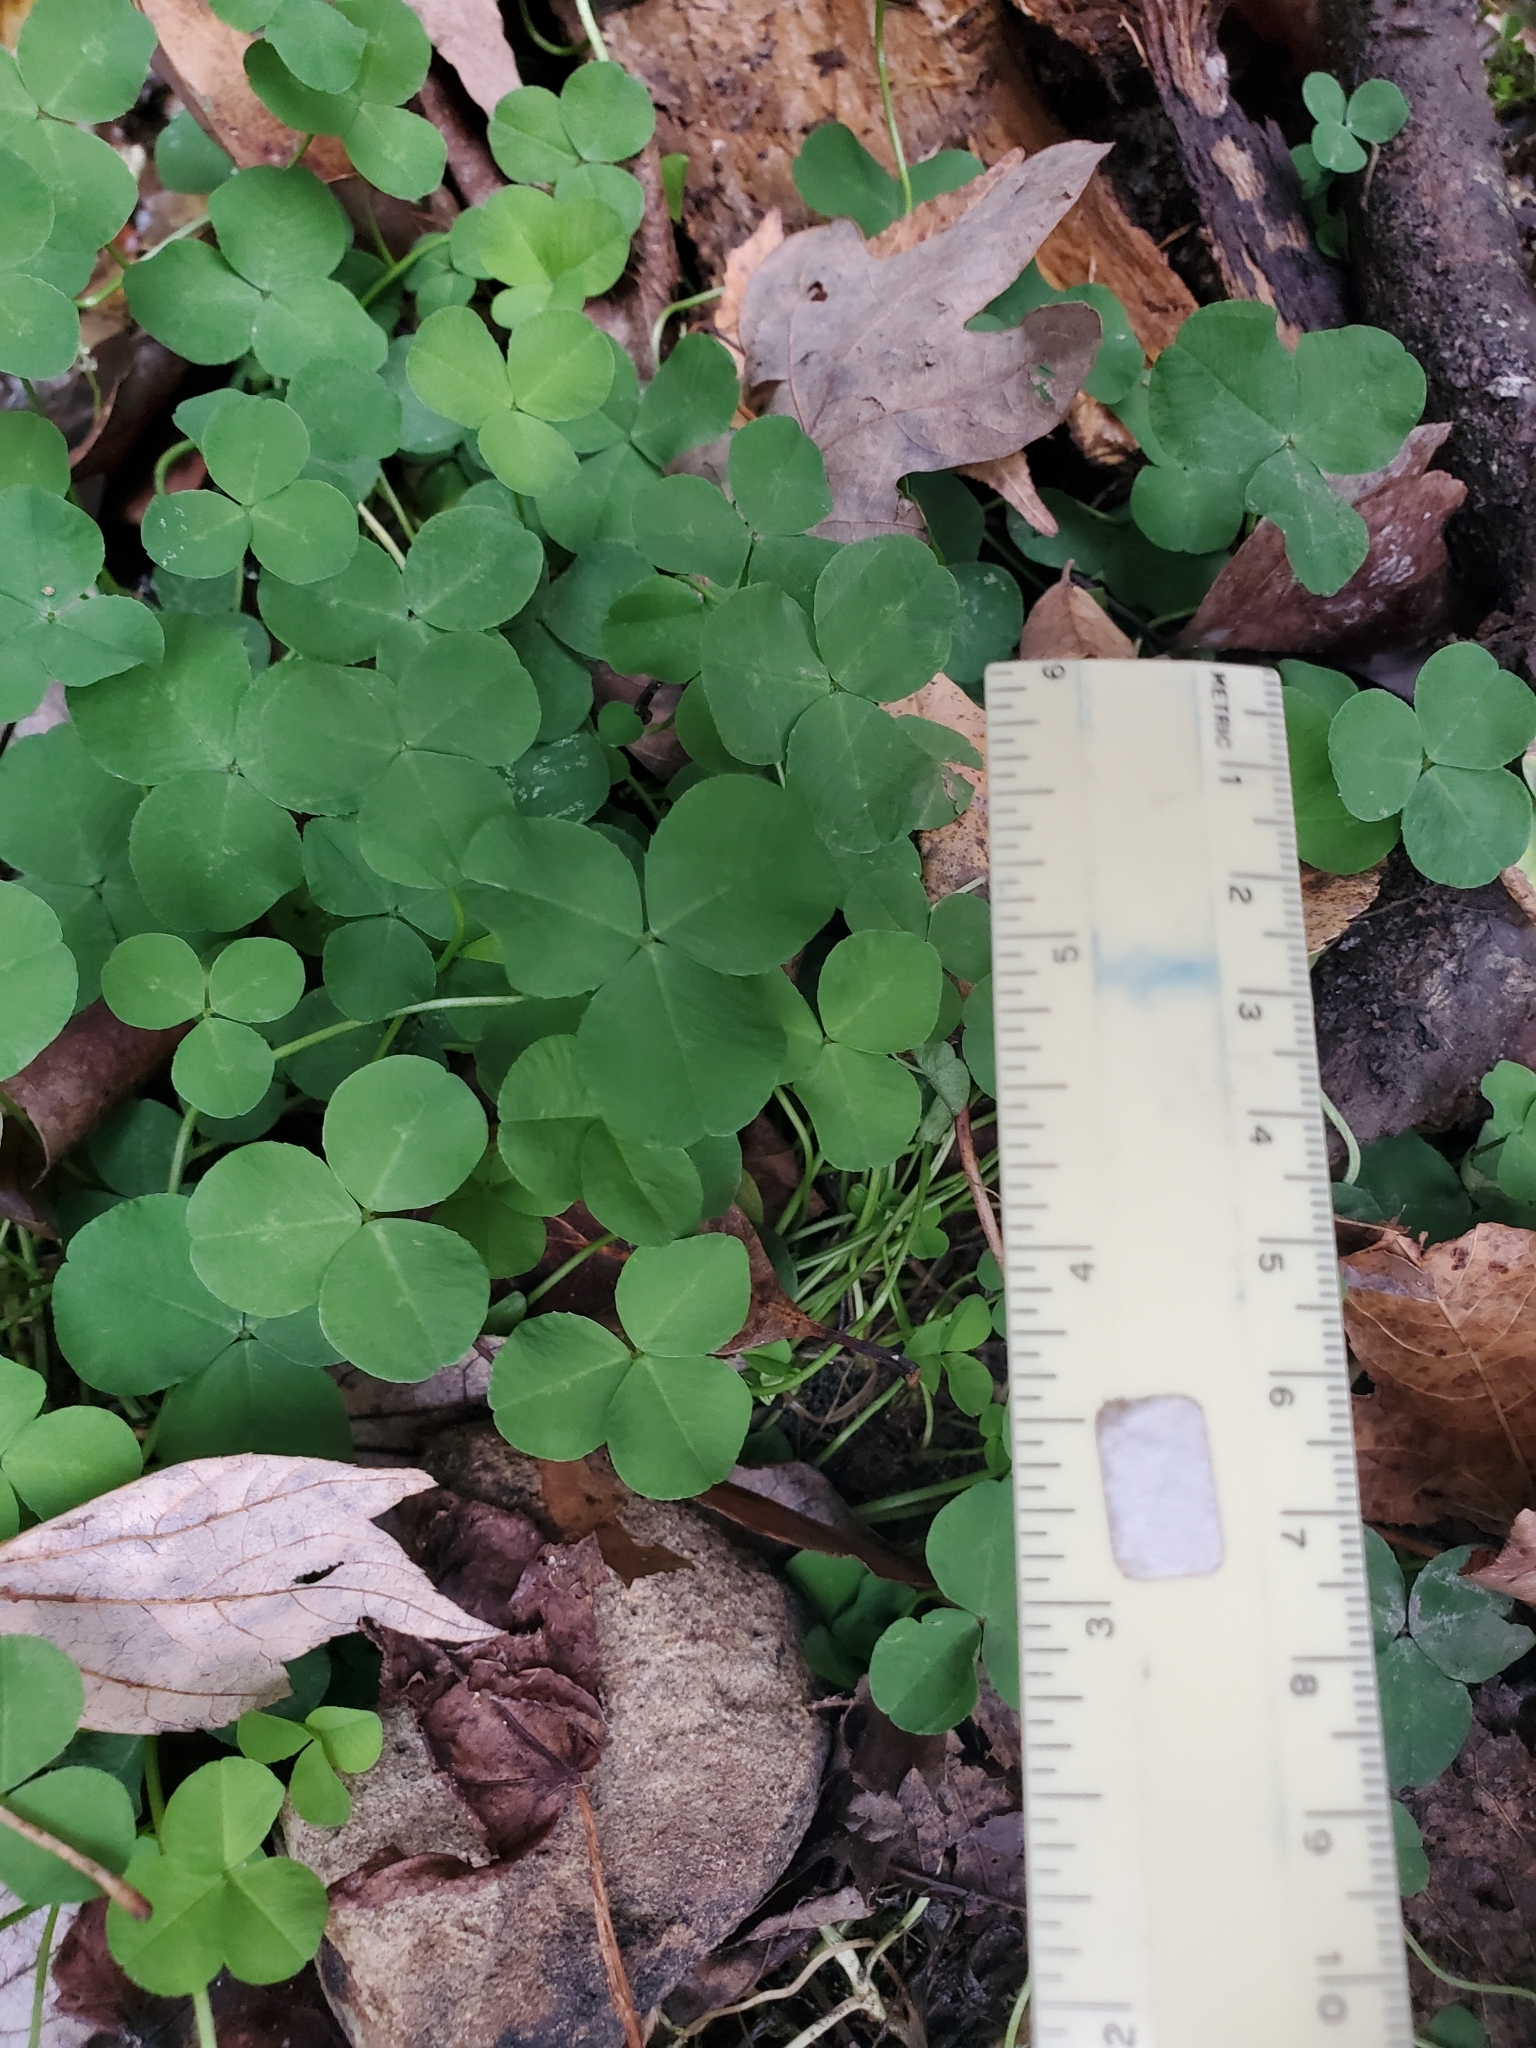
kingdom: Plantae
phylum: Tracheophyta
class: Magnoliopsida
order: Fabales
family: Fabaceae
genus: Trifolium
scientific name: Trifolium repens
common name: White clover
